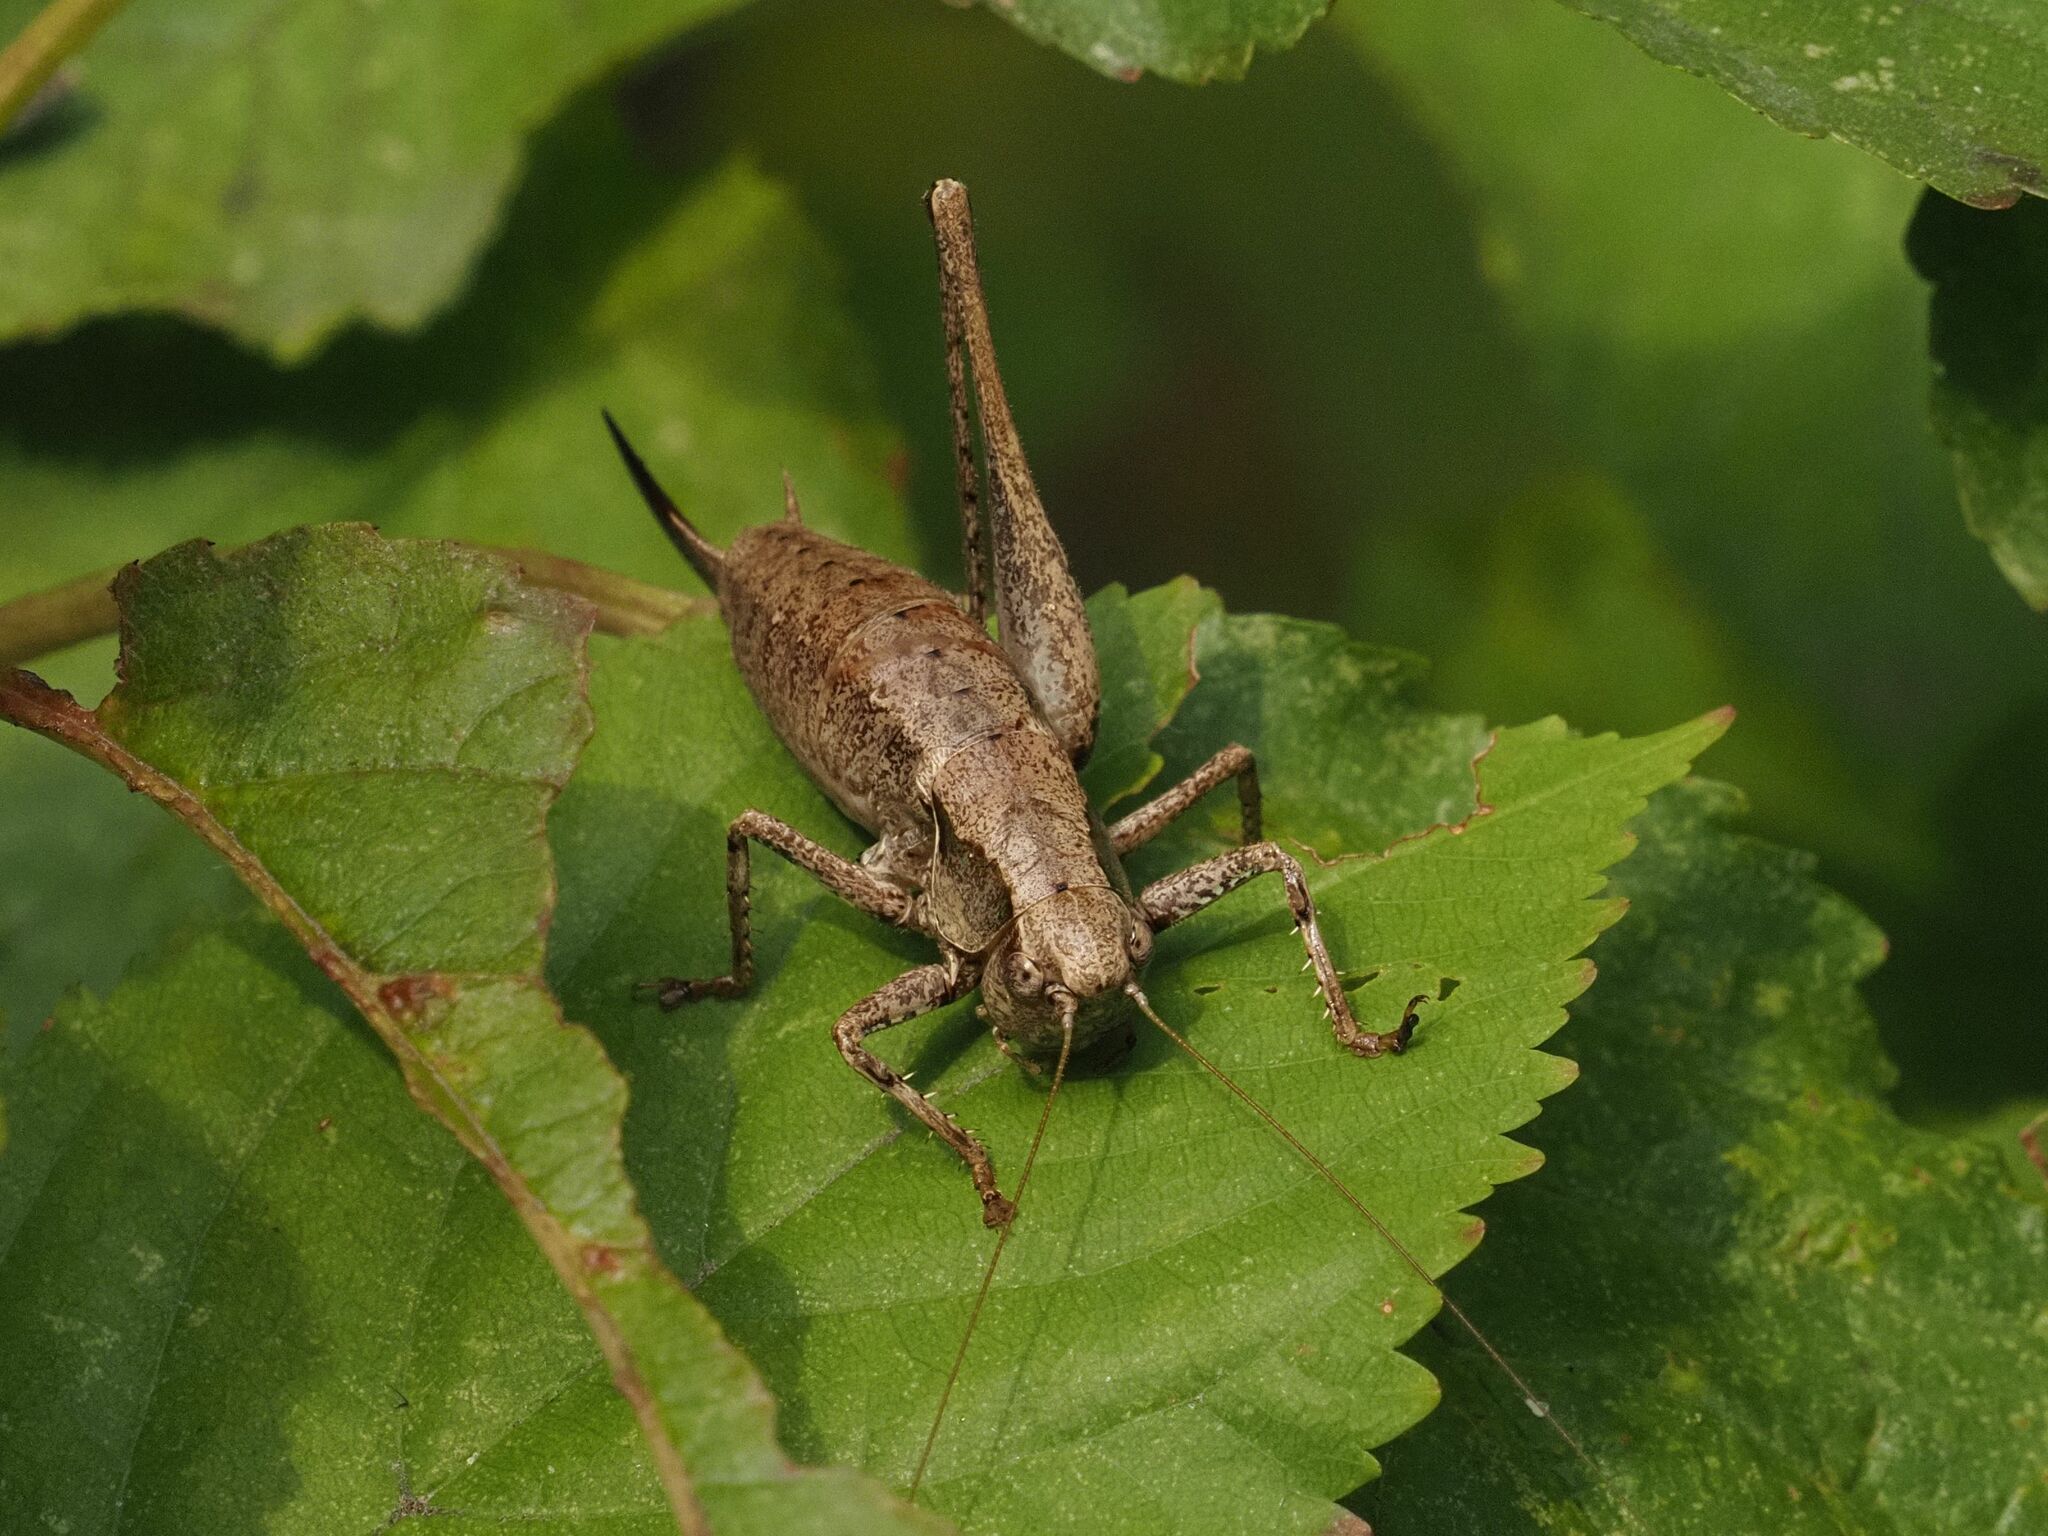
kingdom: Animalia
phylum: Arthropoda
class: Insecta
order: Orthoptera
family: Tettigoniidae
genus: Pholidoptera
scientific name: Pholidoptera griseoaptera
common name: Dark bush-cricket
